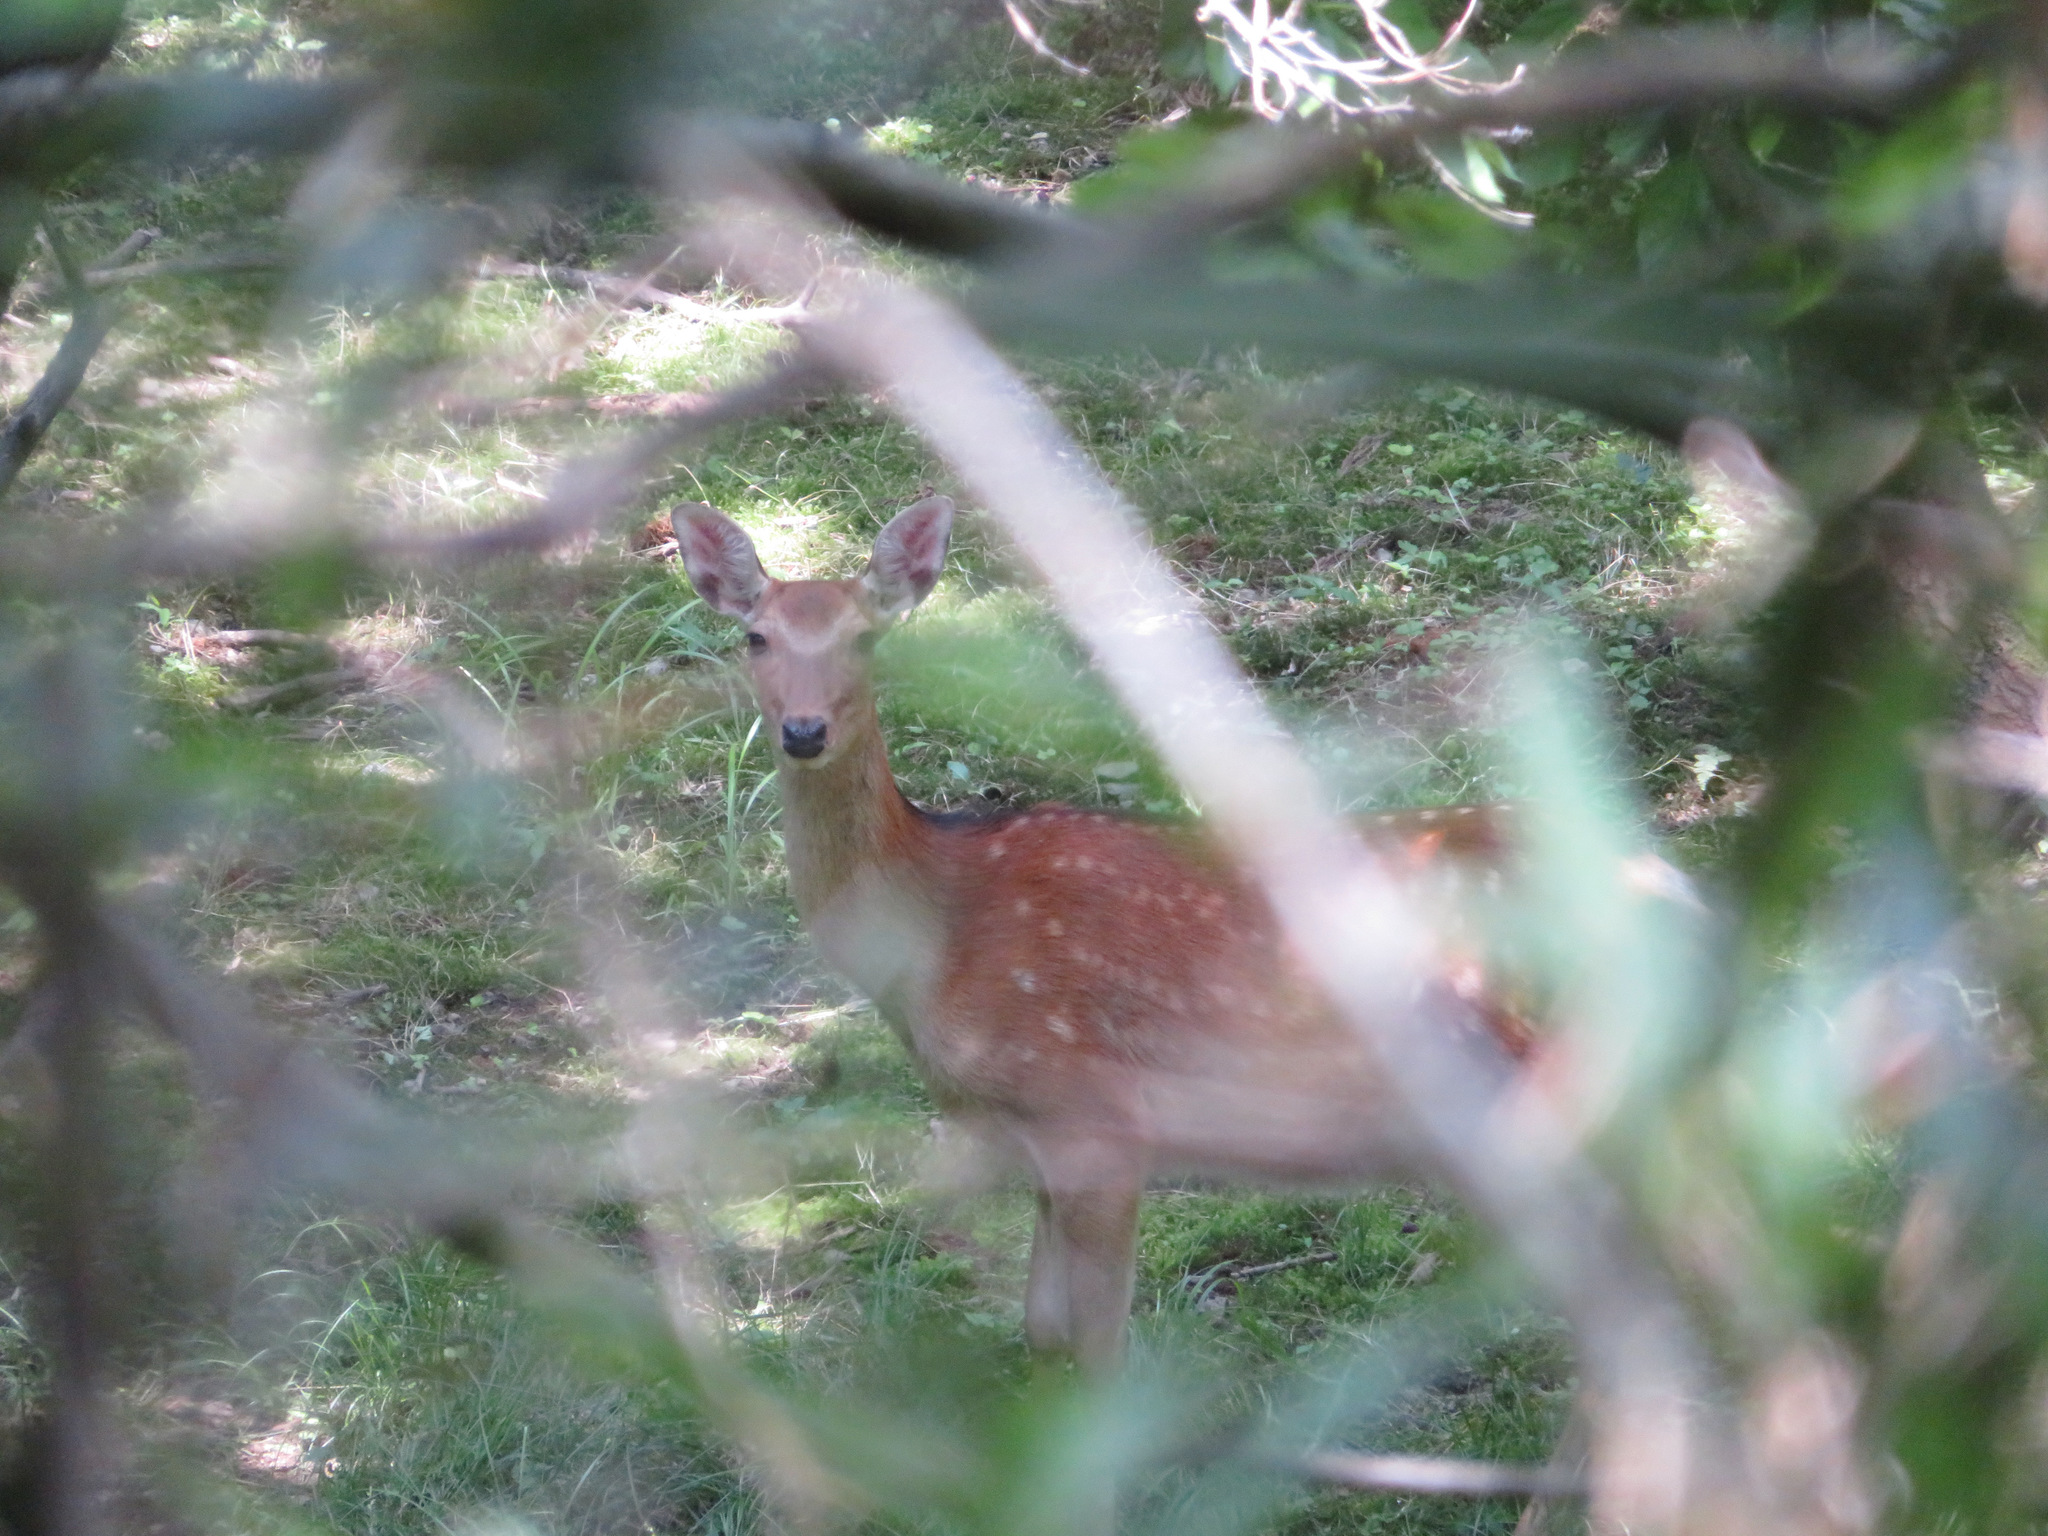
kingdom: Animalia
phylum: Chordata
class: Mammalia
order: Artiodactyla
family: Cervidae
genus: Cervus
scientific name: Cervus nippon
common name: Sika deer
